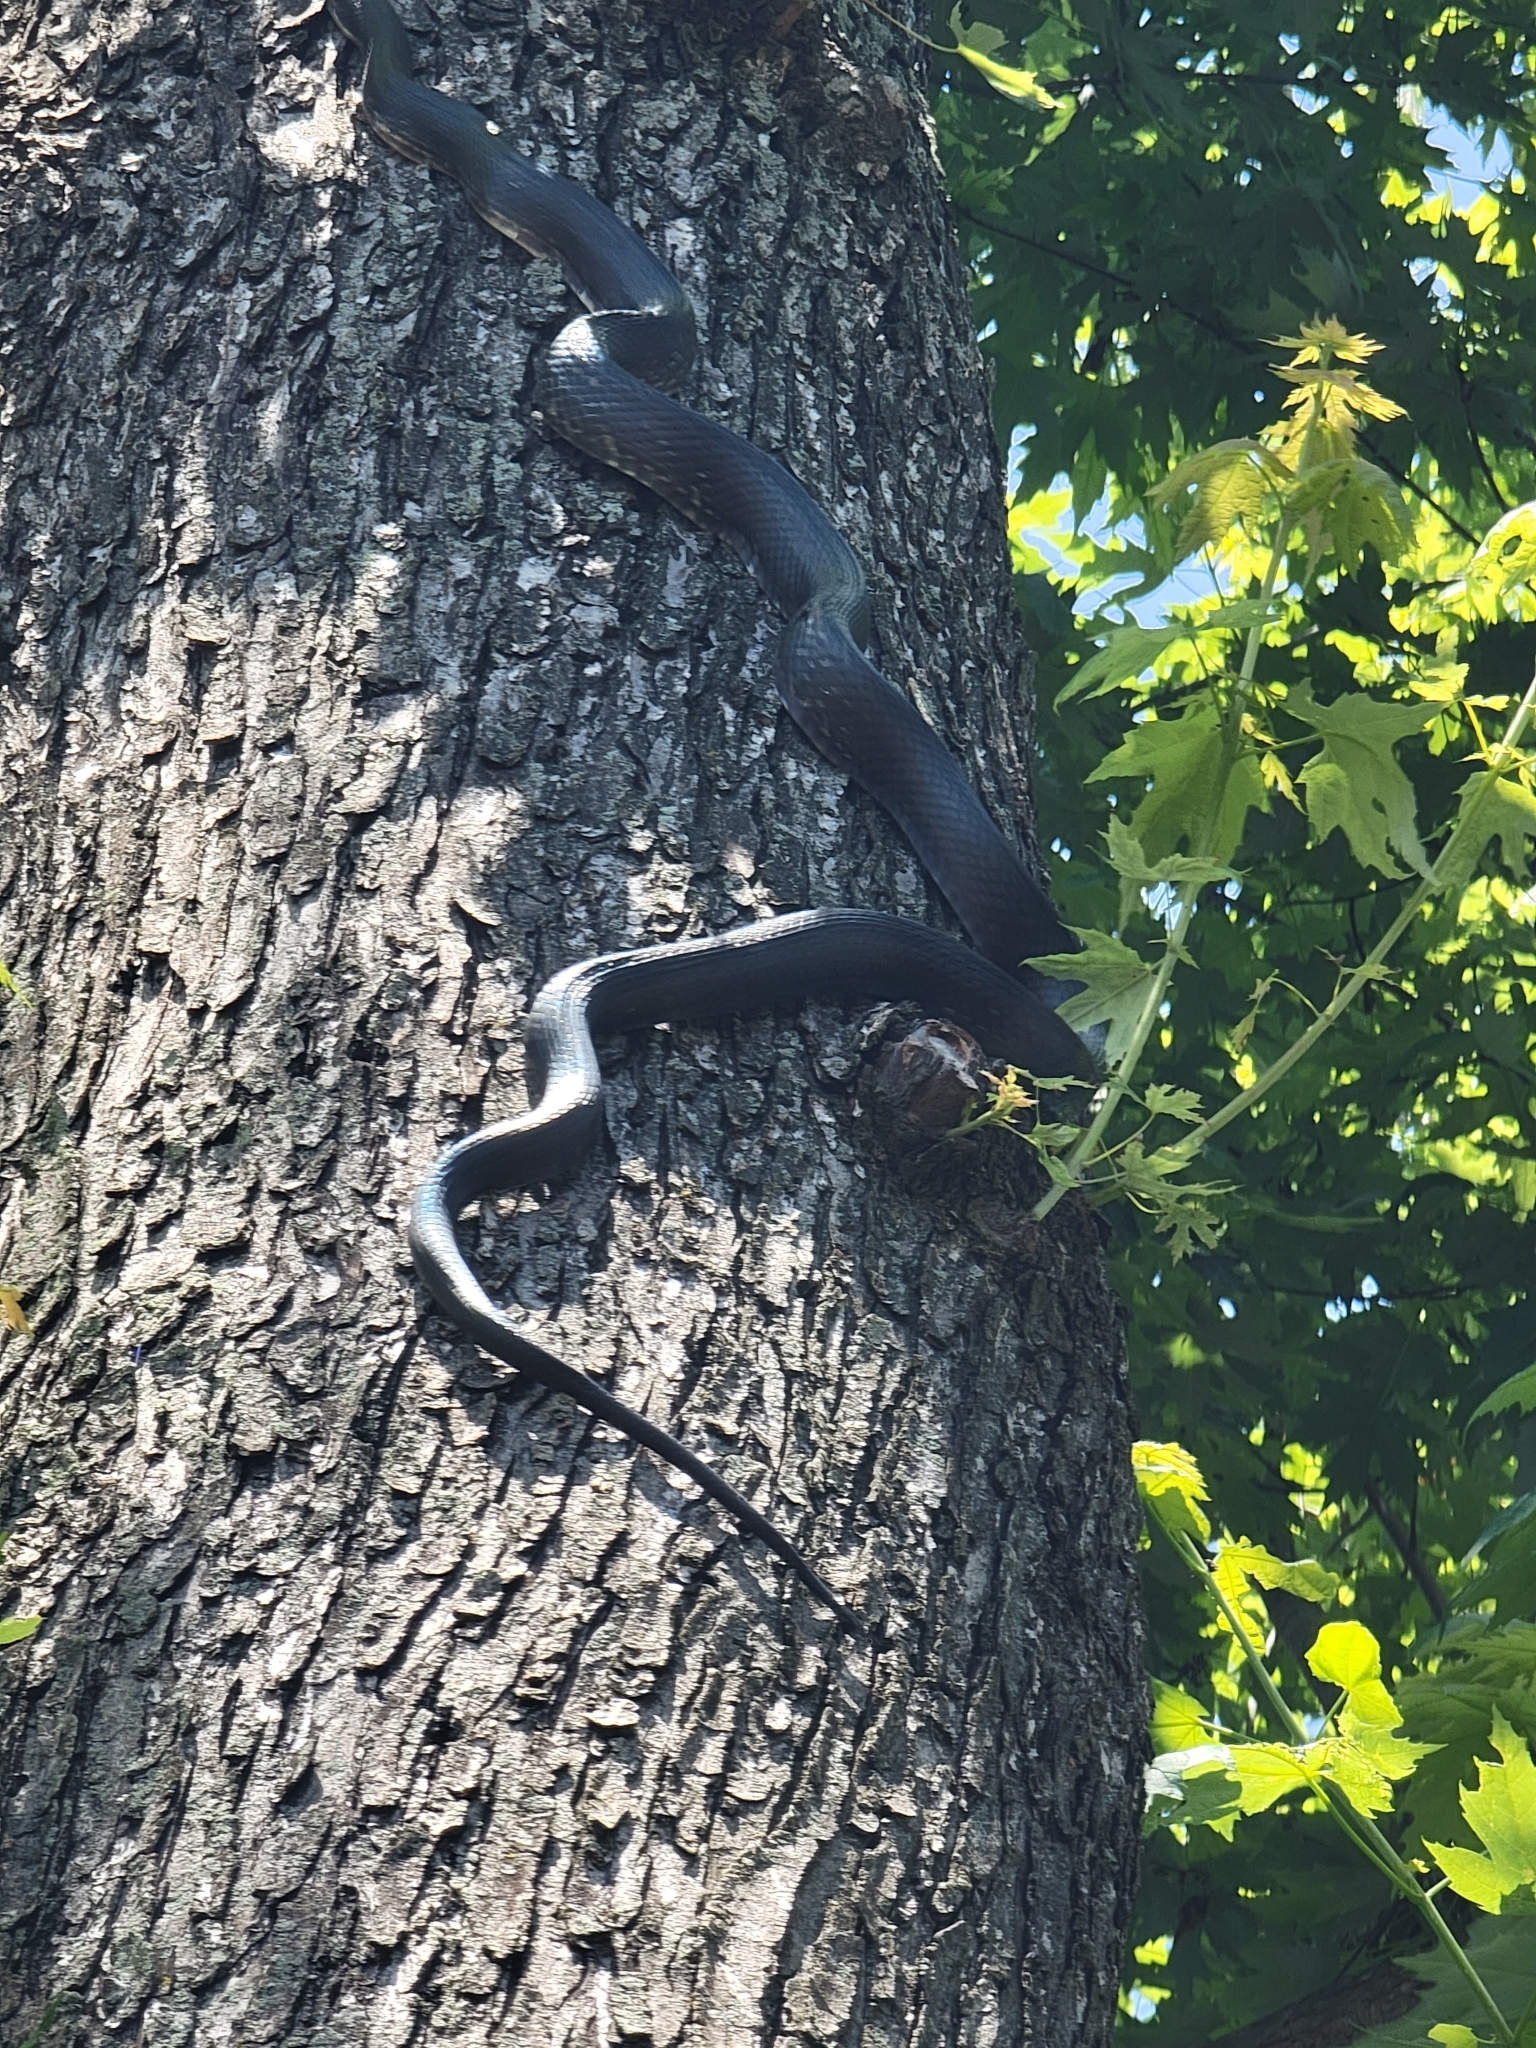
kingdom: Animalia
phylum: Chordata
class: Squamata
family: Colubridae
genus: Pantherophis
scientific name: Pantherophis alleghaniensis
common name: Eastern rat snake
